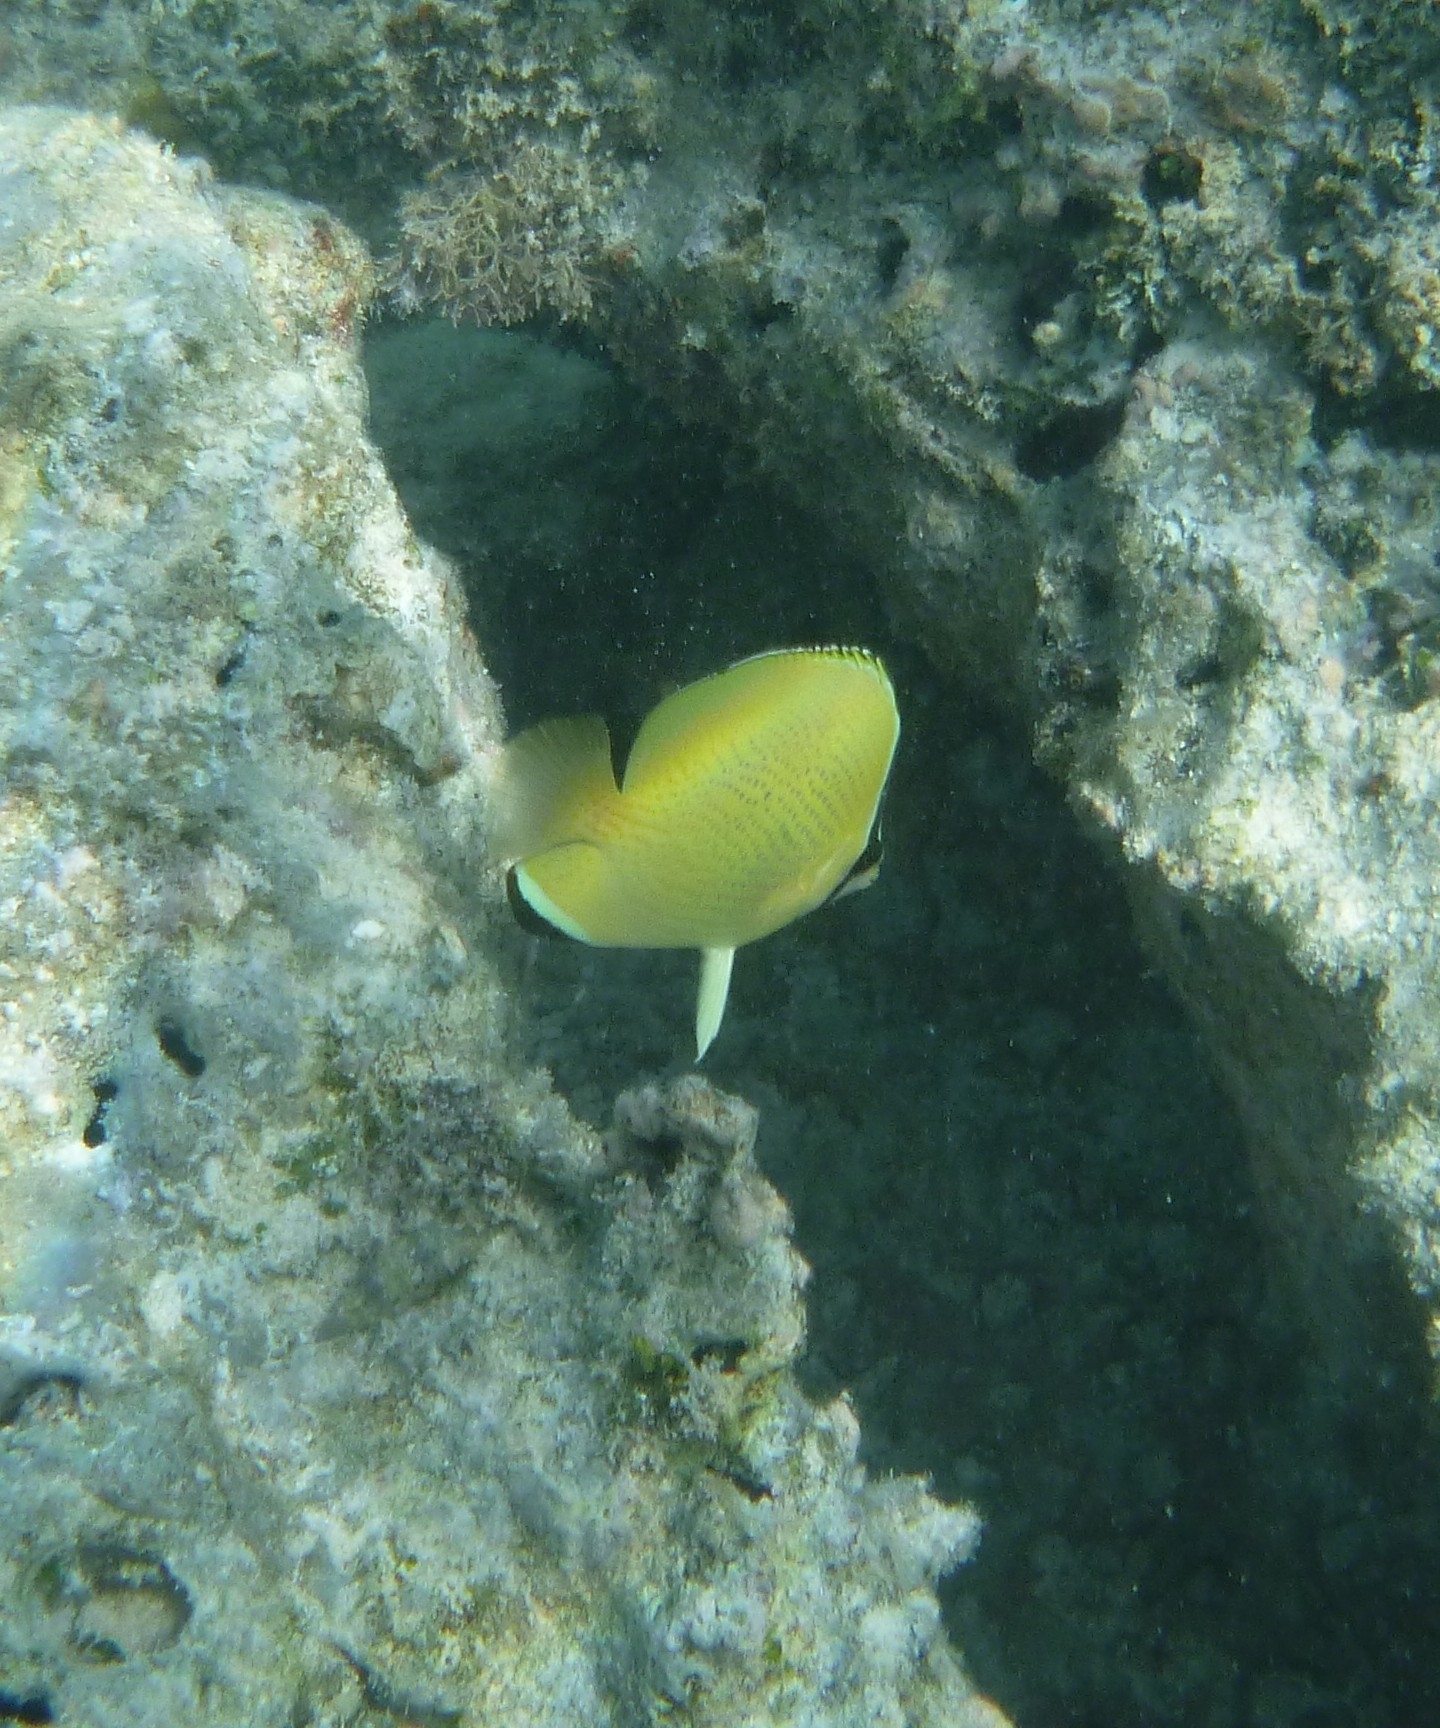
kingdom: Animalia
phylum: Chordata
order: Perciformes
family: Chaetodontidae
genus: Chaetodon
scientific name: Chaetodon citrinellus
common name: Speckled butterflyfish
